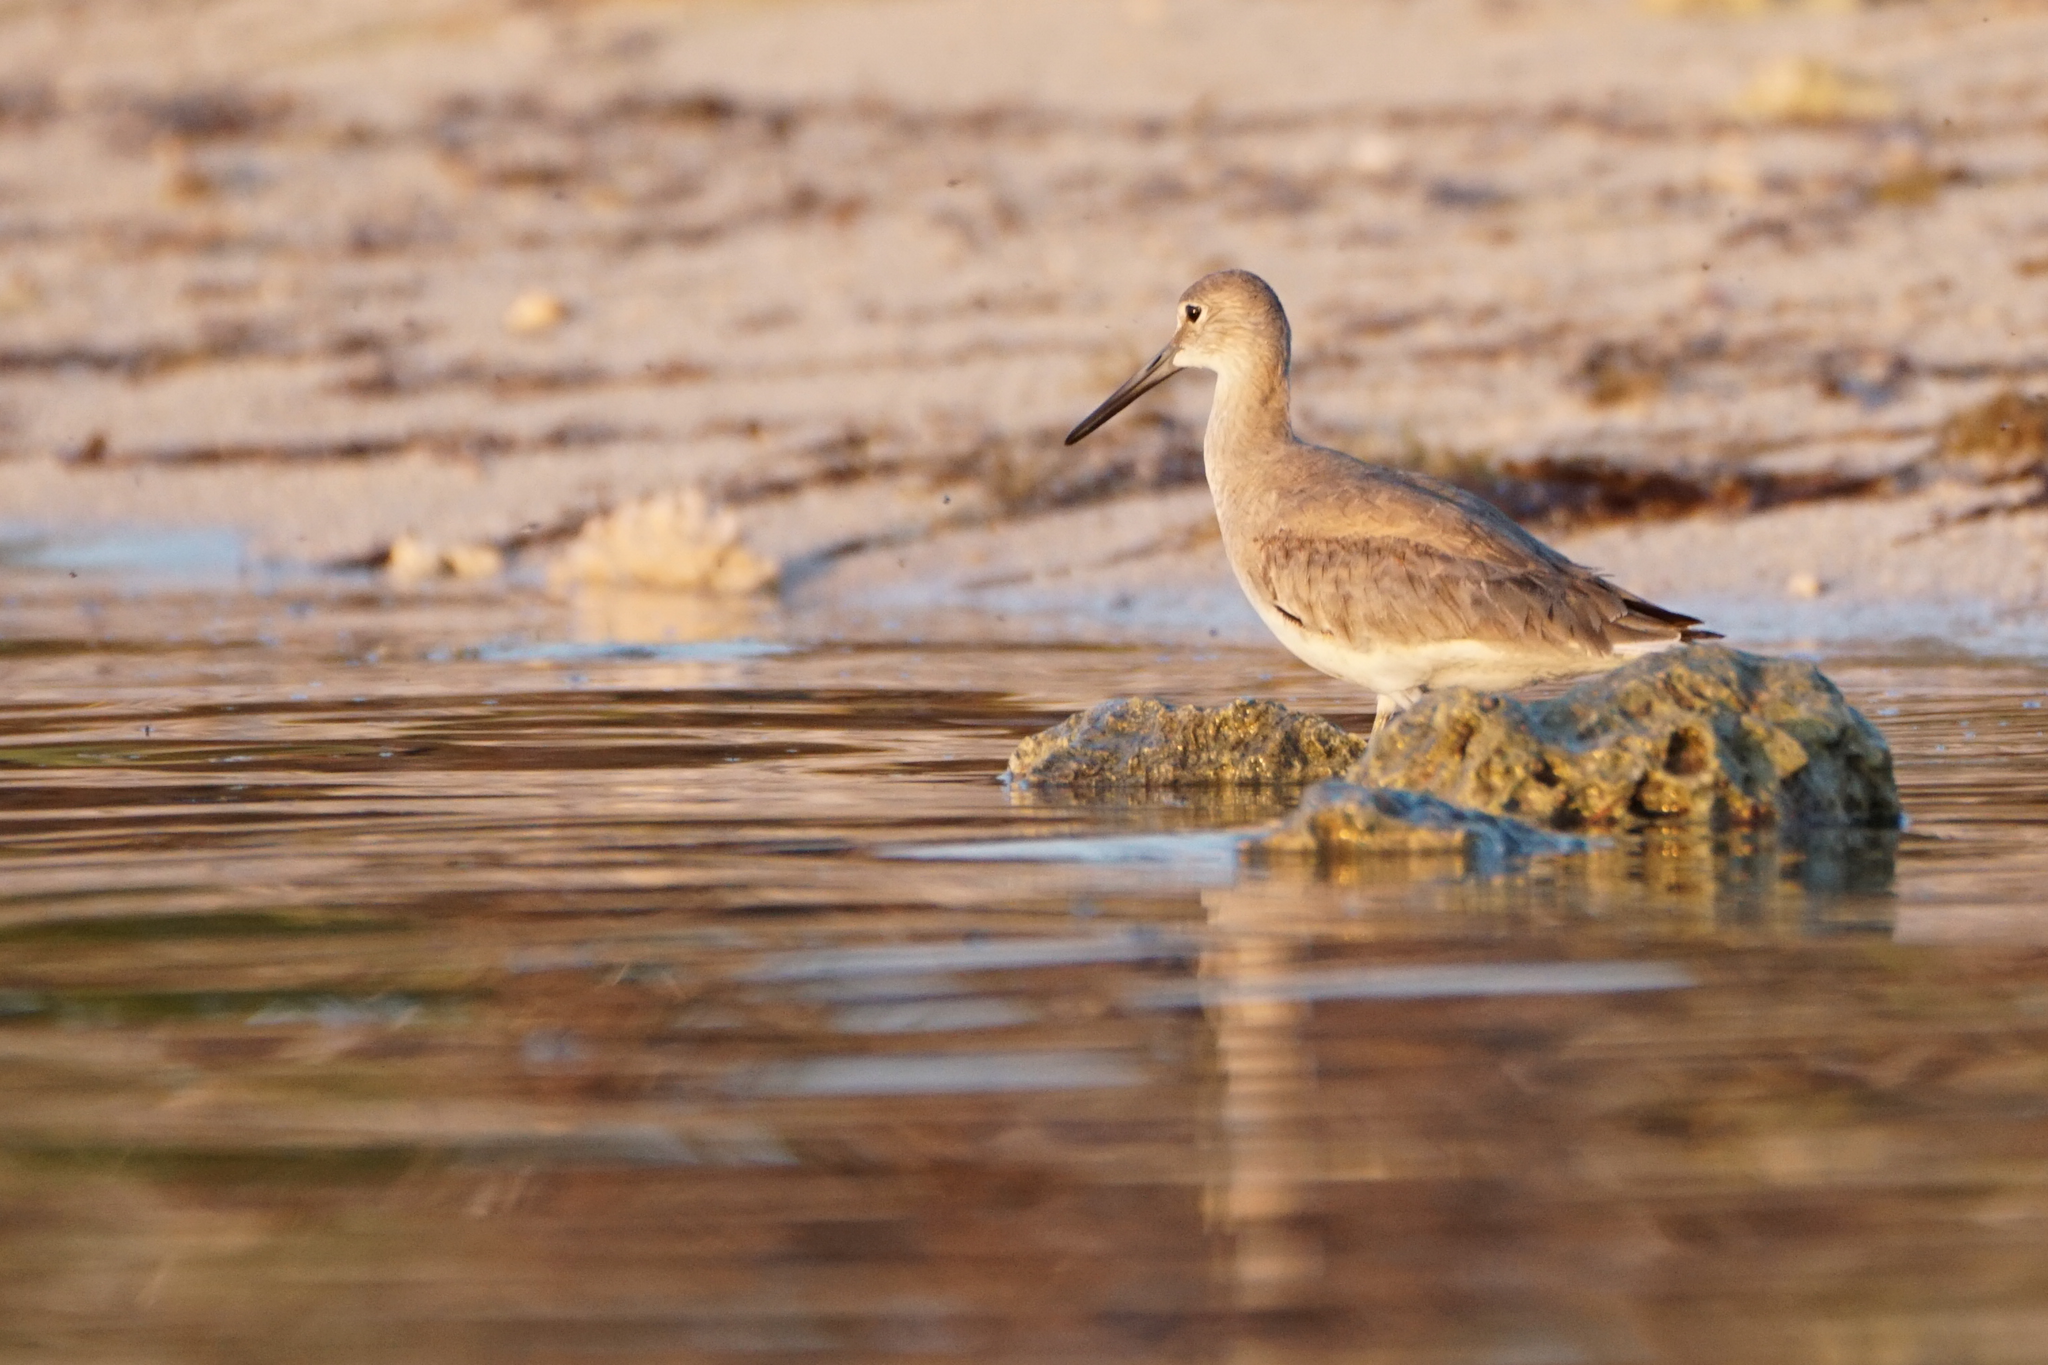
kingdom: Animalia
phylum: Chordata
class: Aves
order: Charadriiformes
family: Scolopacidae
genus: Tringa
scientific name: Tringa semipalmata
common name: Willet
